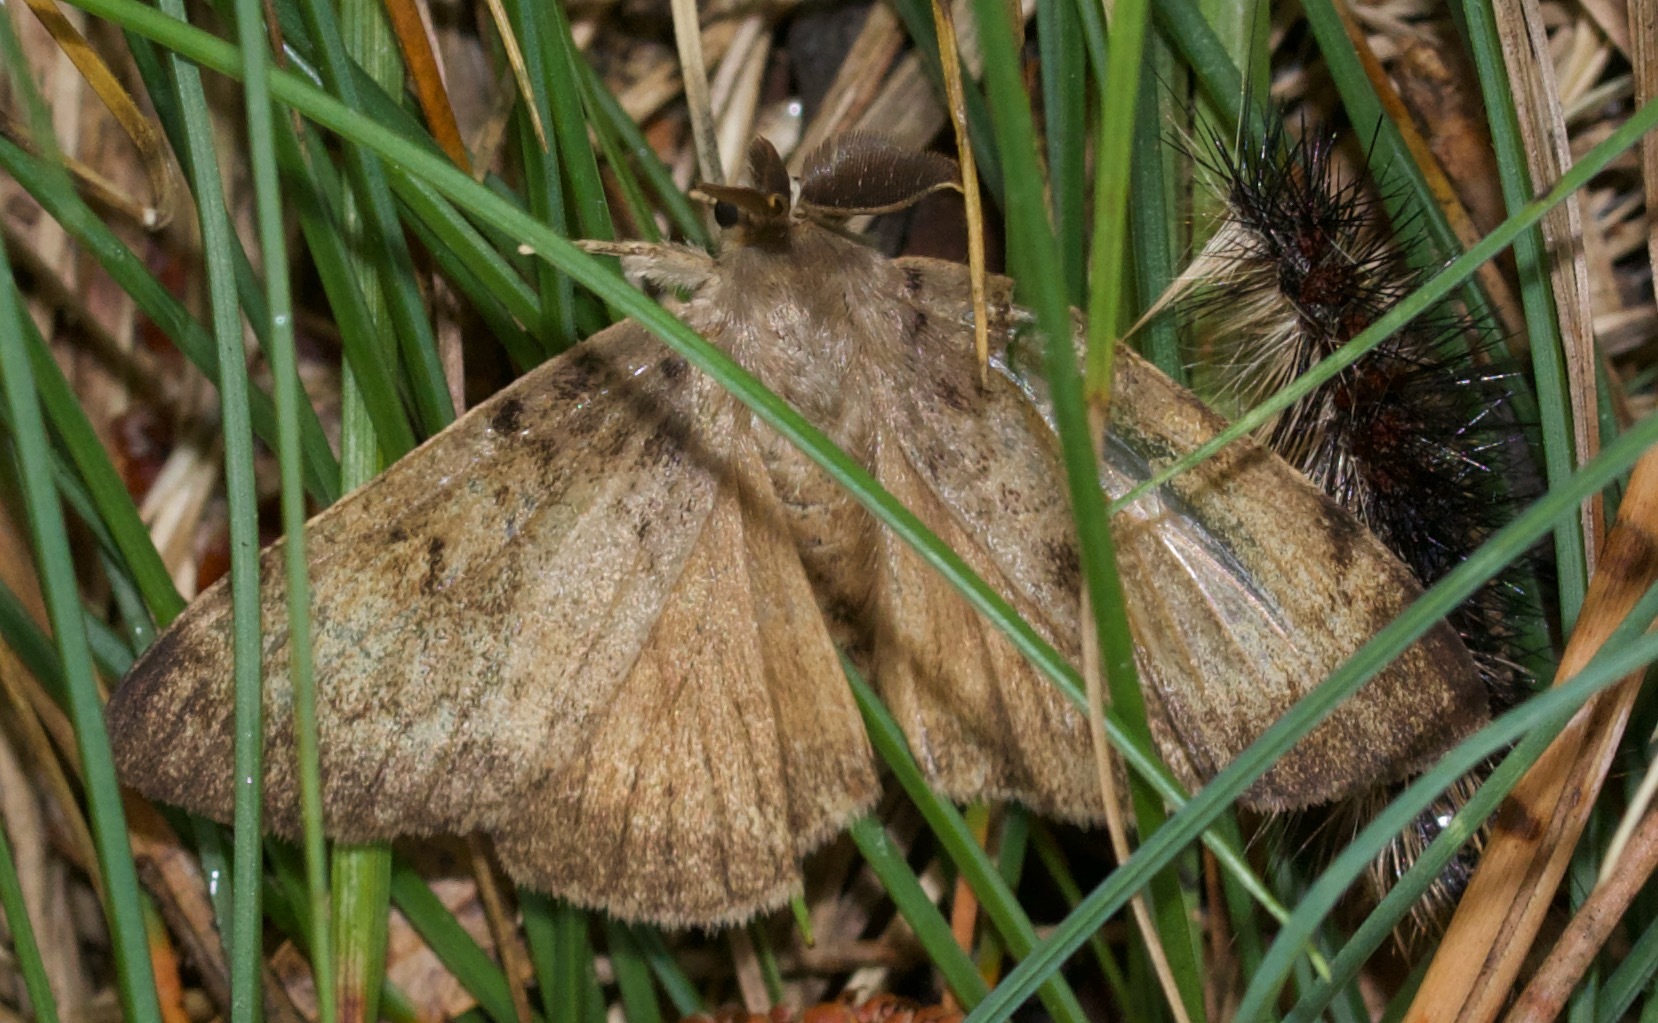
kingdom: Animalia
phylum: Arthropoda
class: Insecta
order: Lepidoptera
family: Erebidae
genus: Lymantria
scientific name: Lymantria dispar
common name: Gypsy moth
